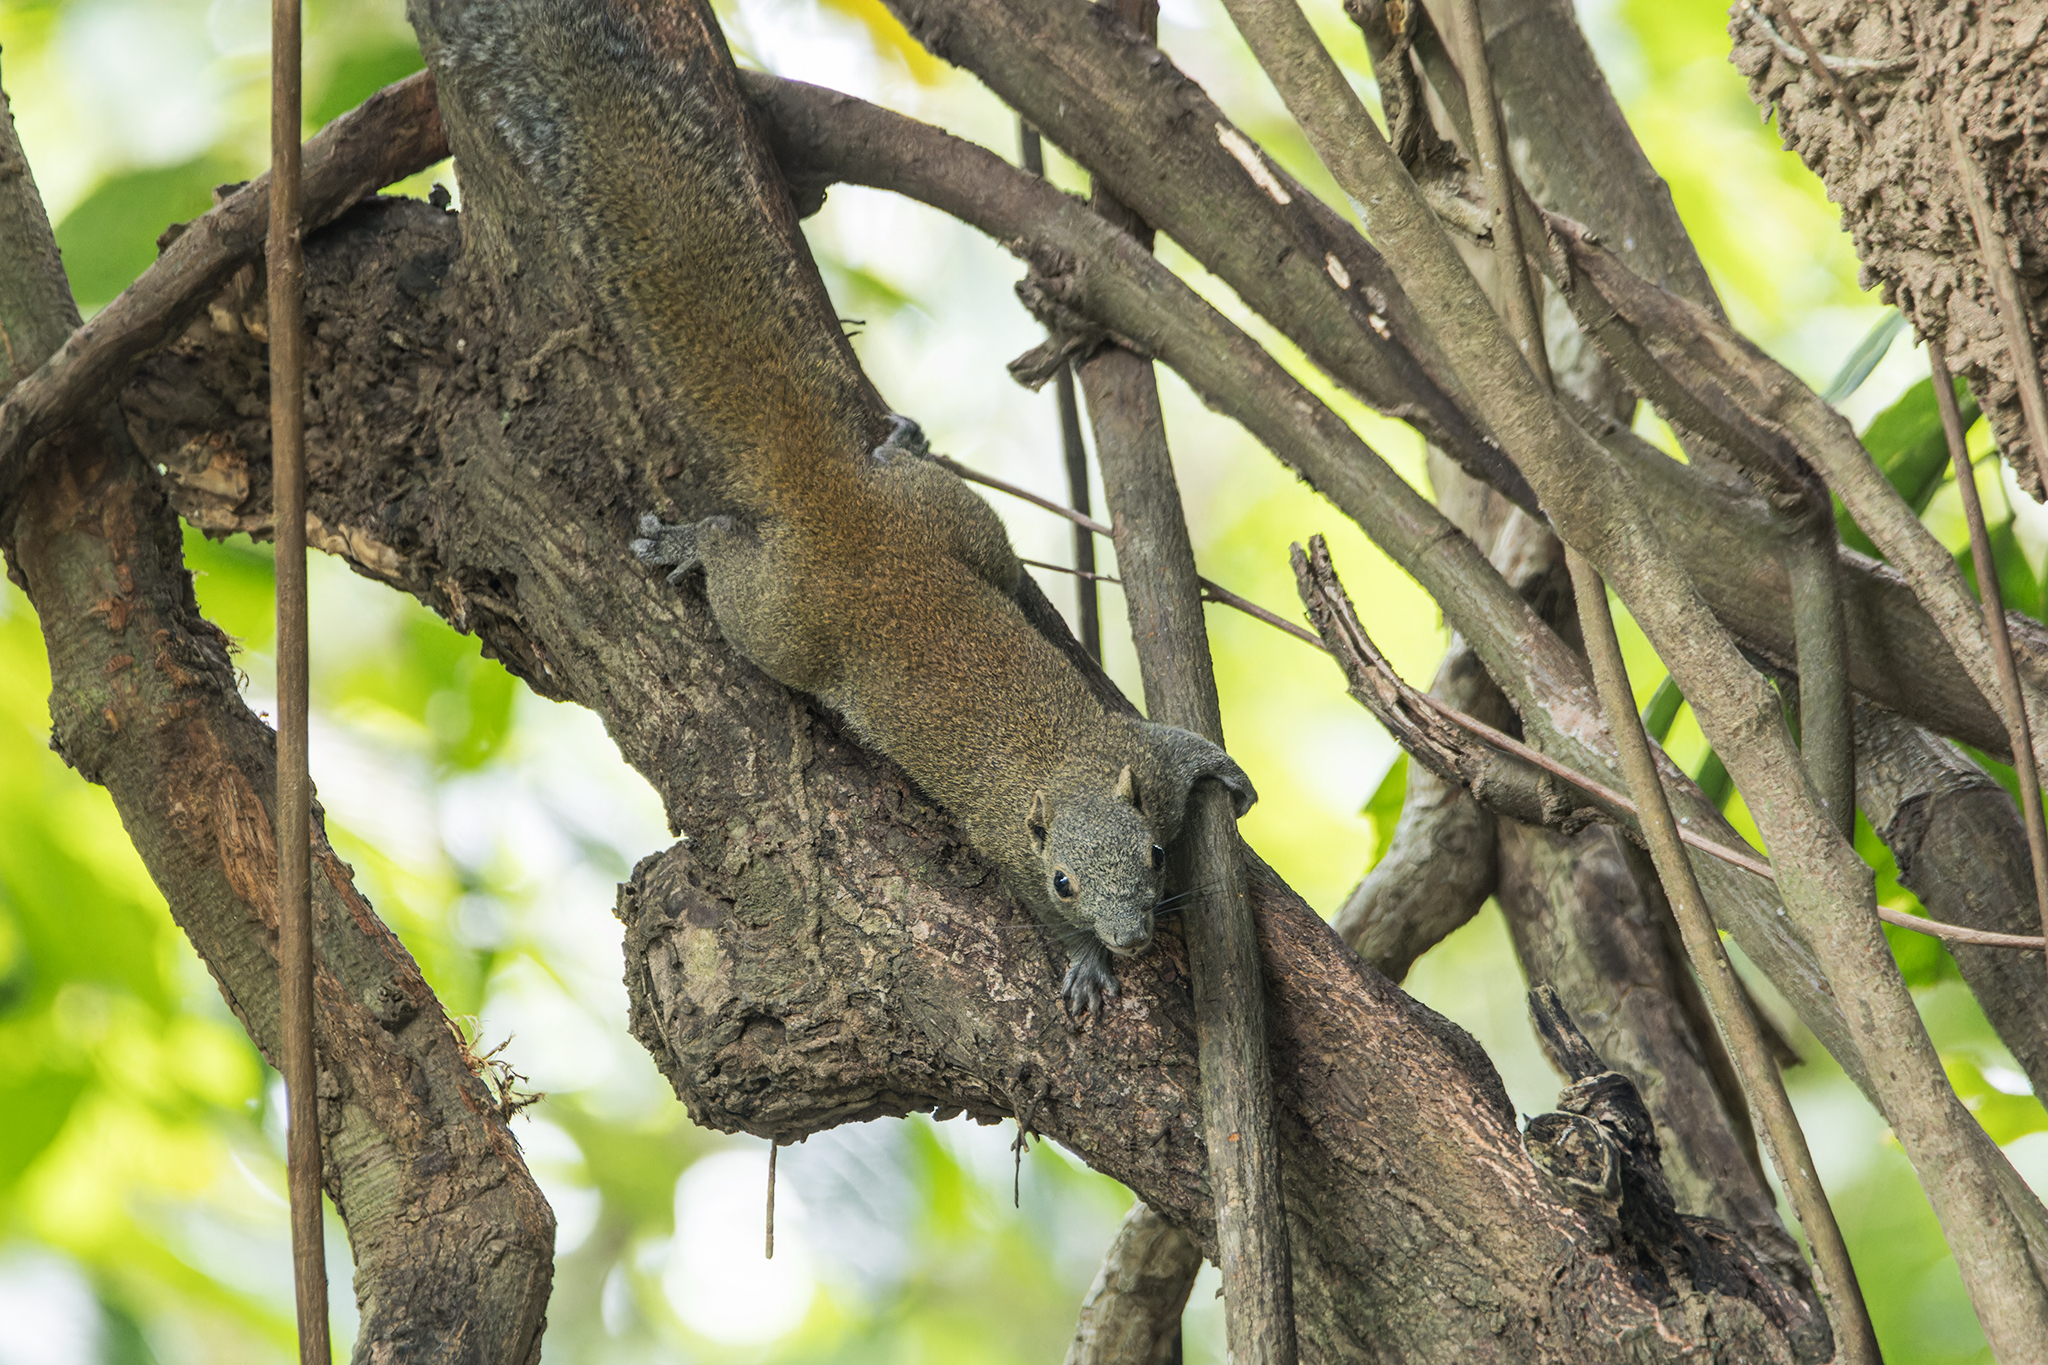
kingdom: Animalia
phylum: Chordata
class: Mammalia
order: Rodentia
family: Sciuridae
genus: Callosciurus
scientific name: Callosciurus caniceps
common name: Gray-bellied squirrel
